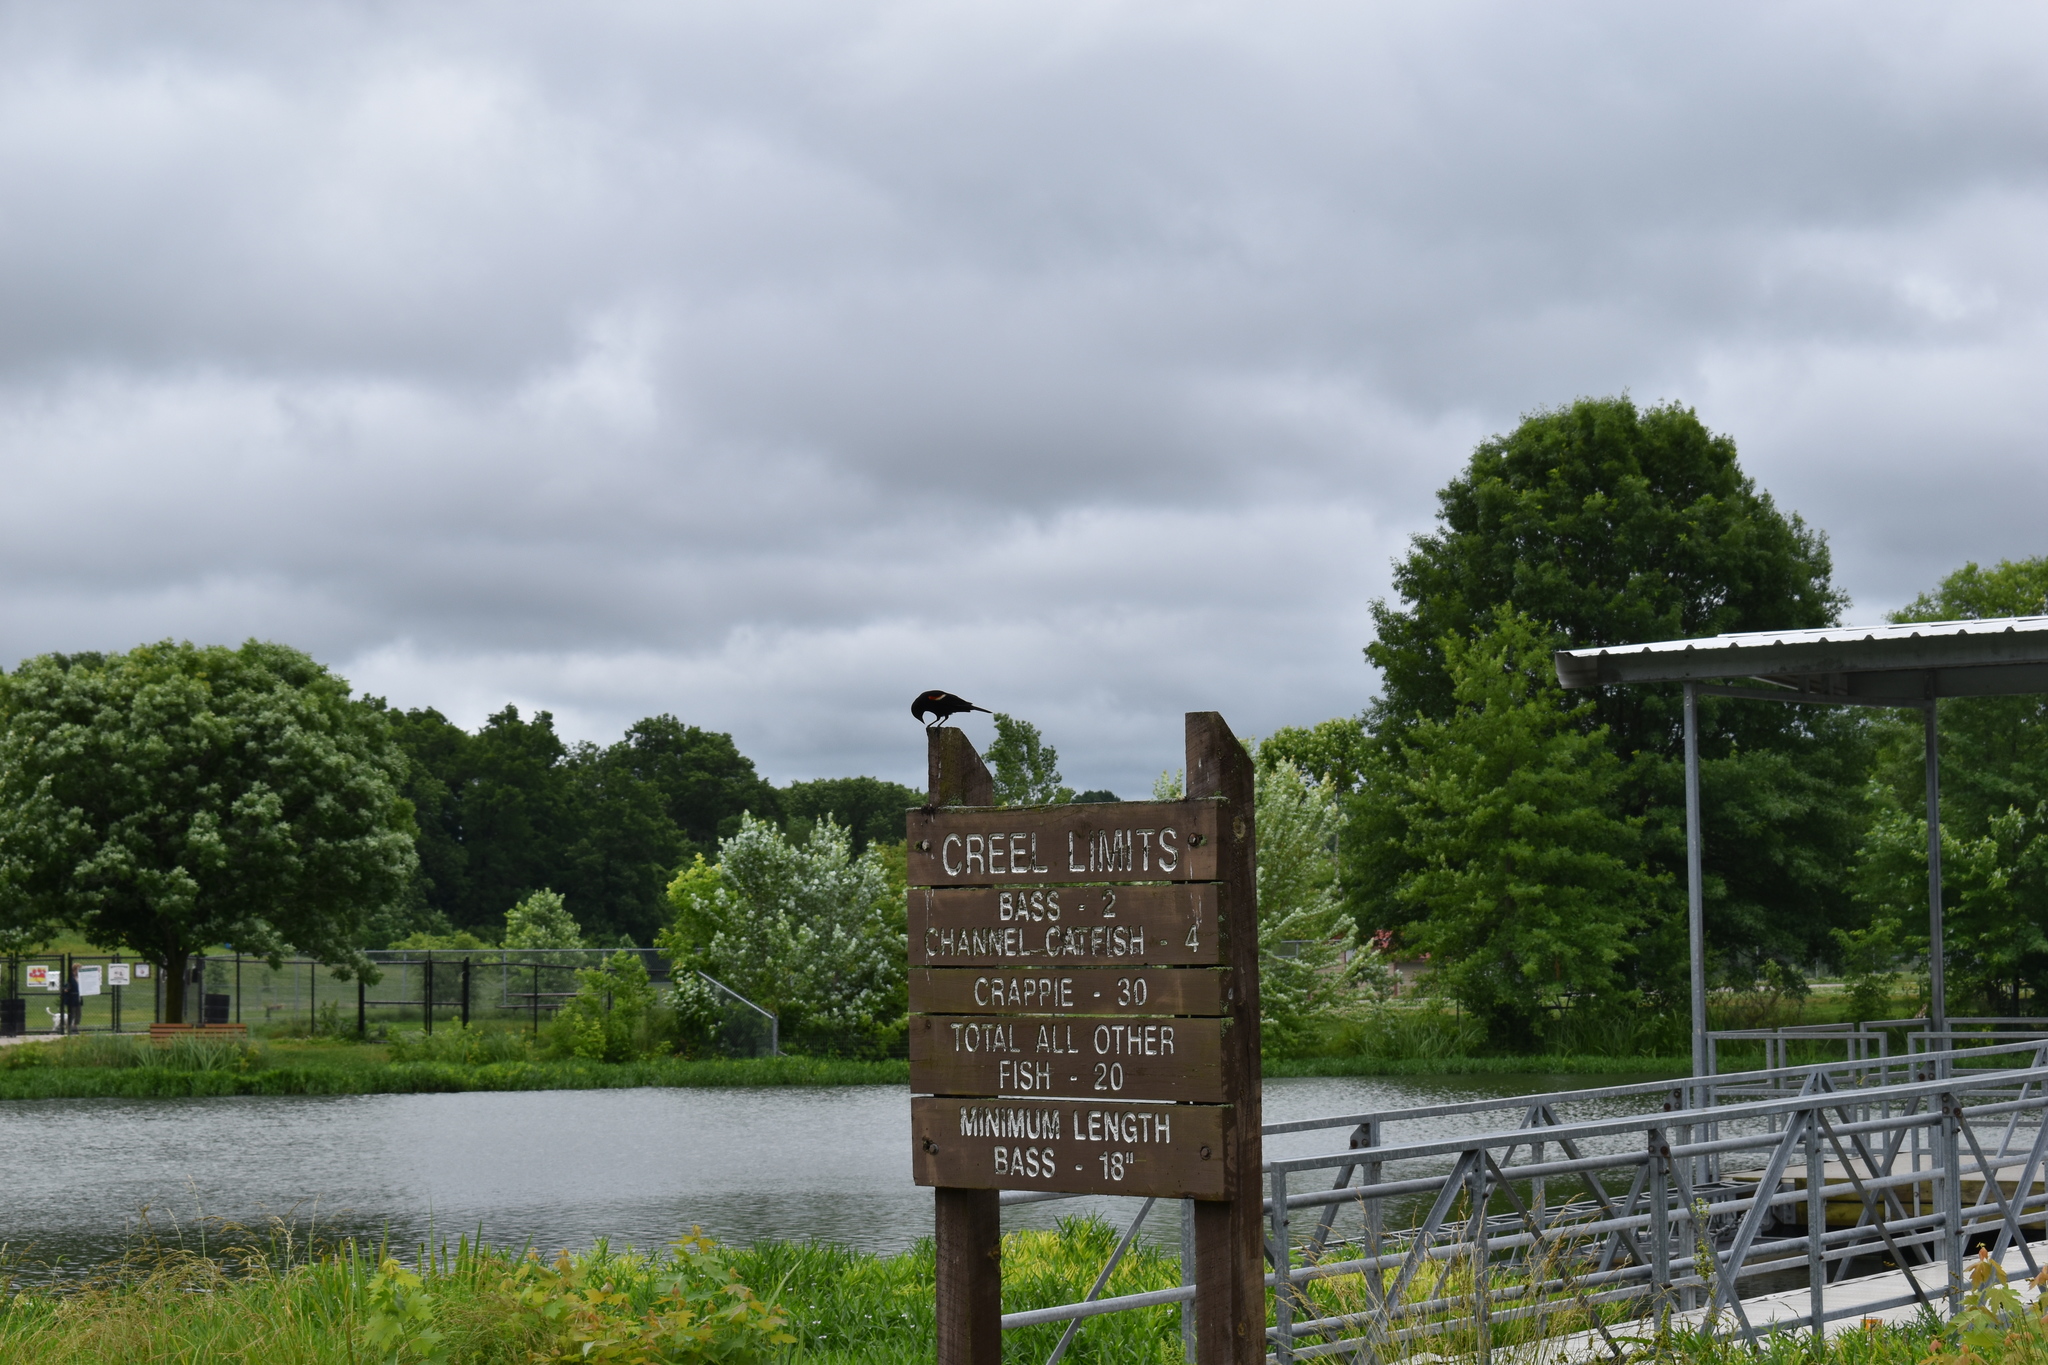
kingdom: Animalia
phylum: Chordata
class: Aves
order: Passeriformes
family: Icteridae
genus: Agelaius
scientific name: Agelaius phoeniceus
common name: Red-winged blackbird
